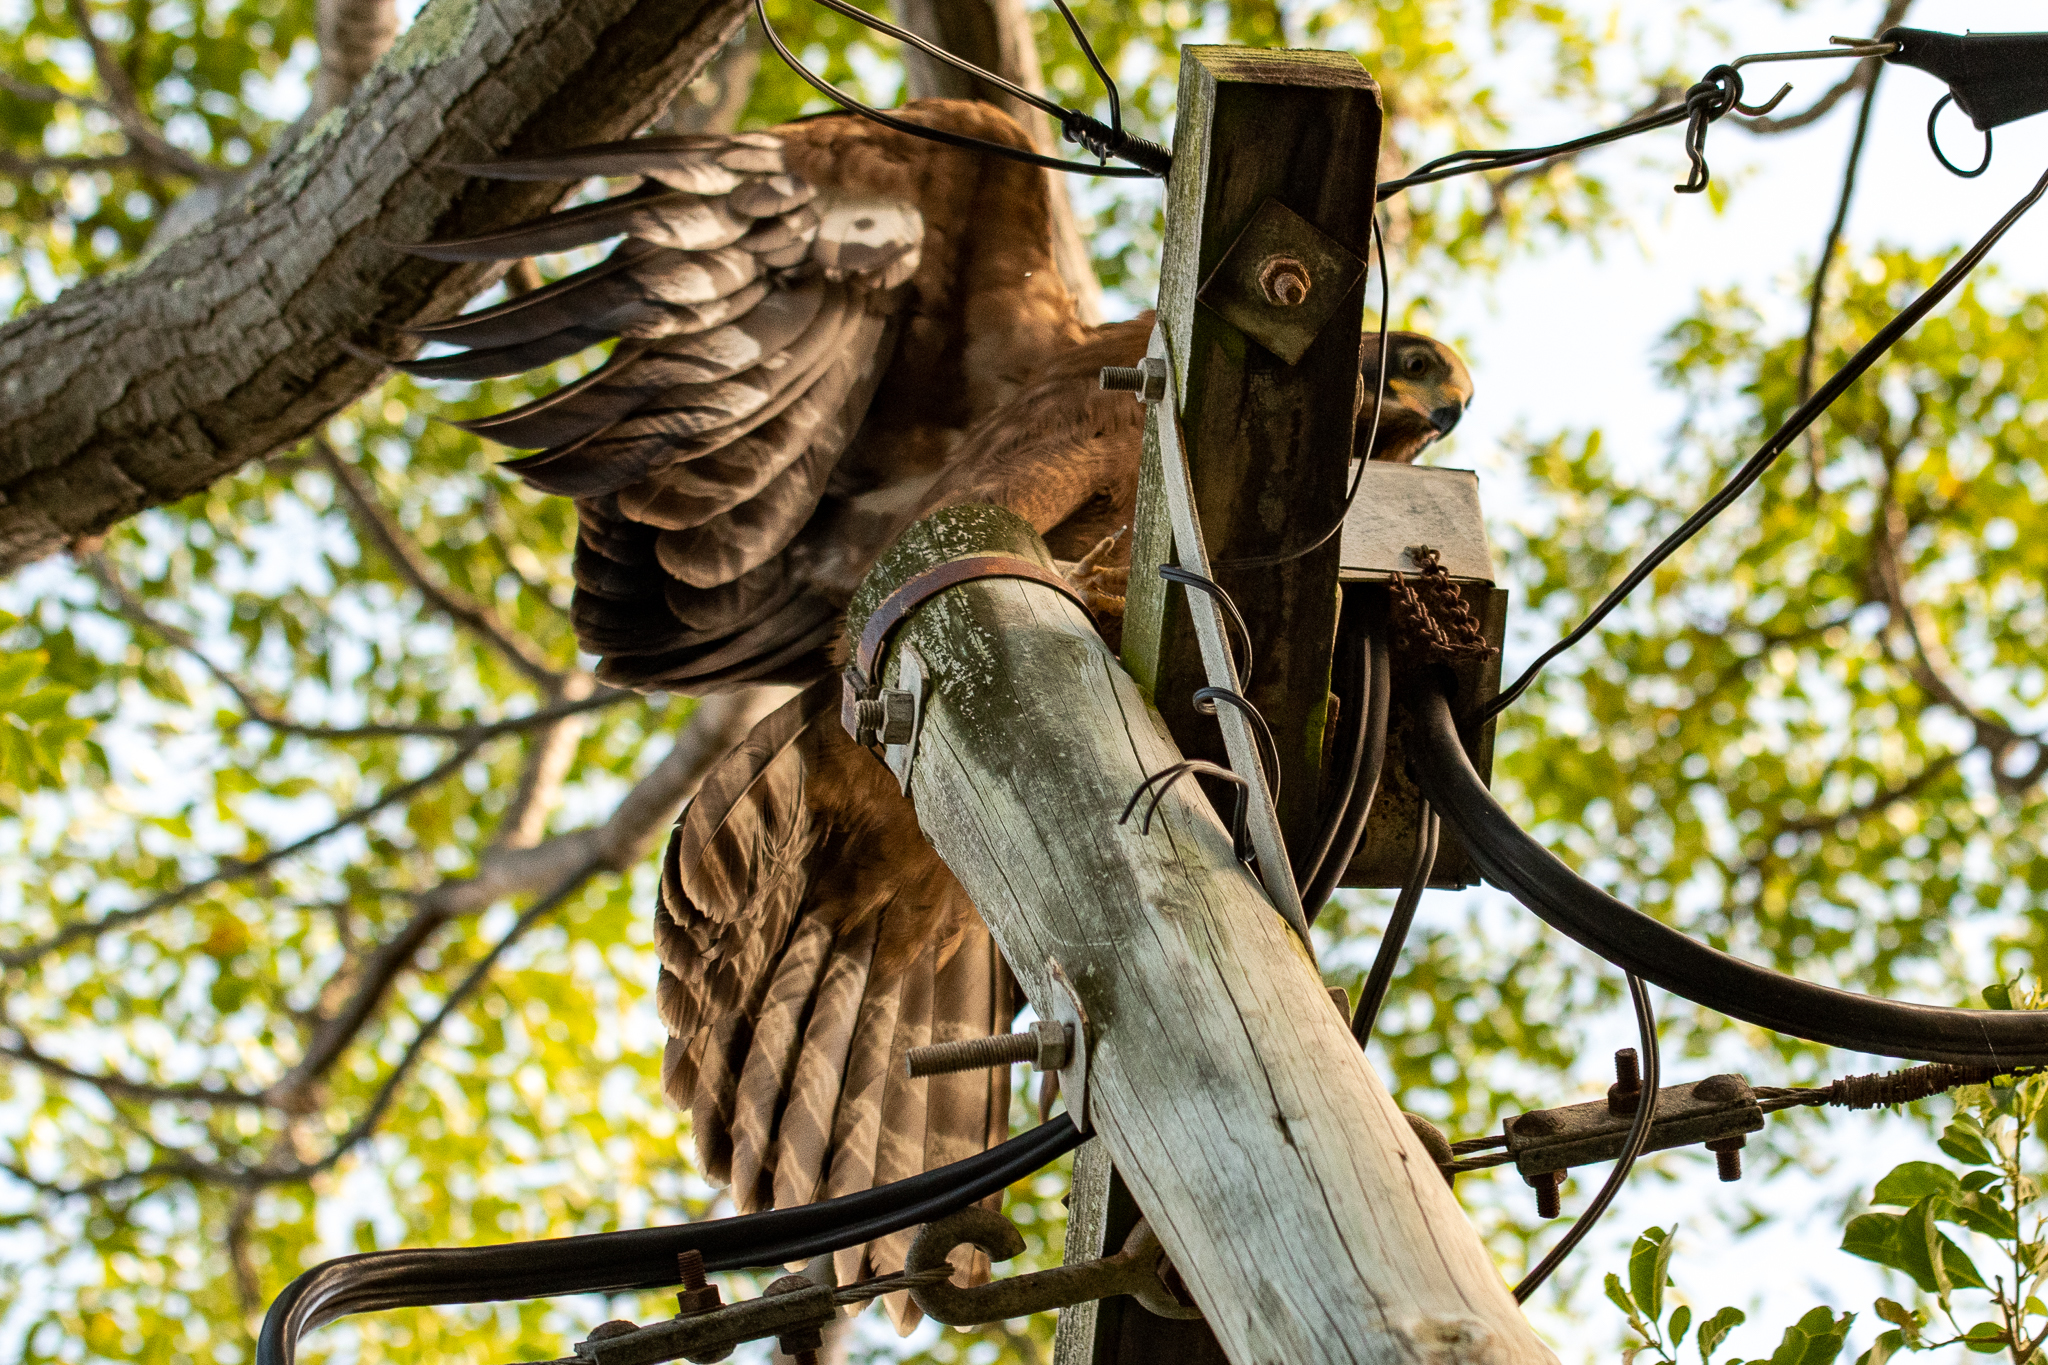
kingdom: Animalia
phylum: Chordata
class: Aves
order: Accipitriformes
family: Accipitridae
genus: Polyboroides
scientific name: Polyboroides typus
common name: African harrier-hawk
